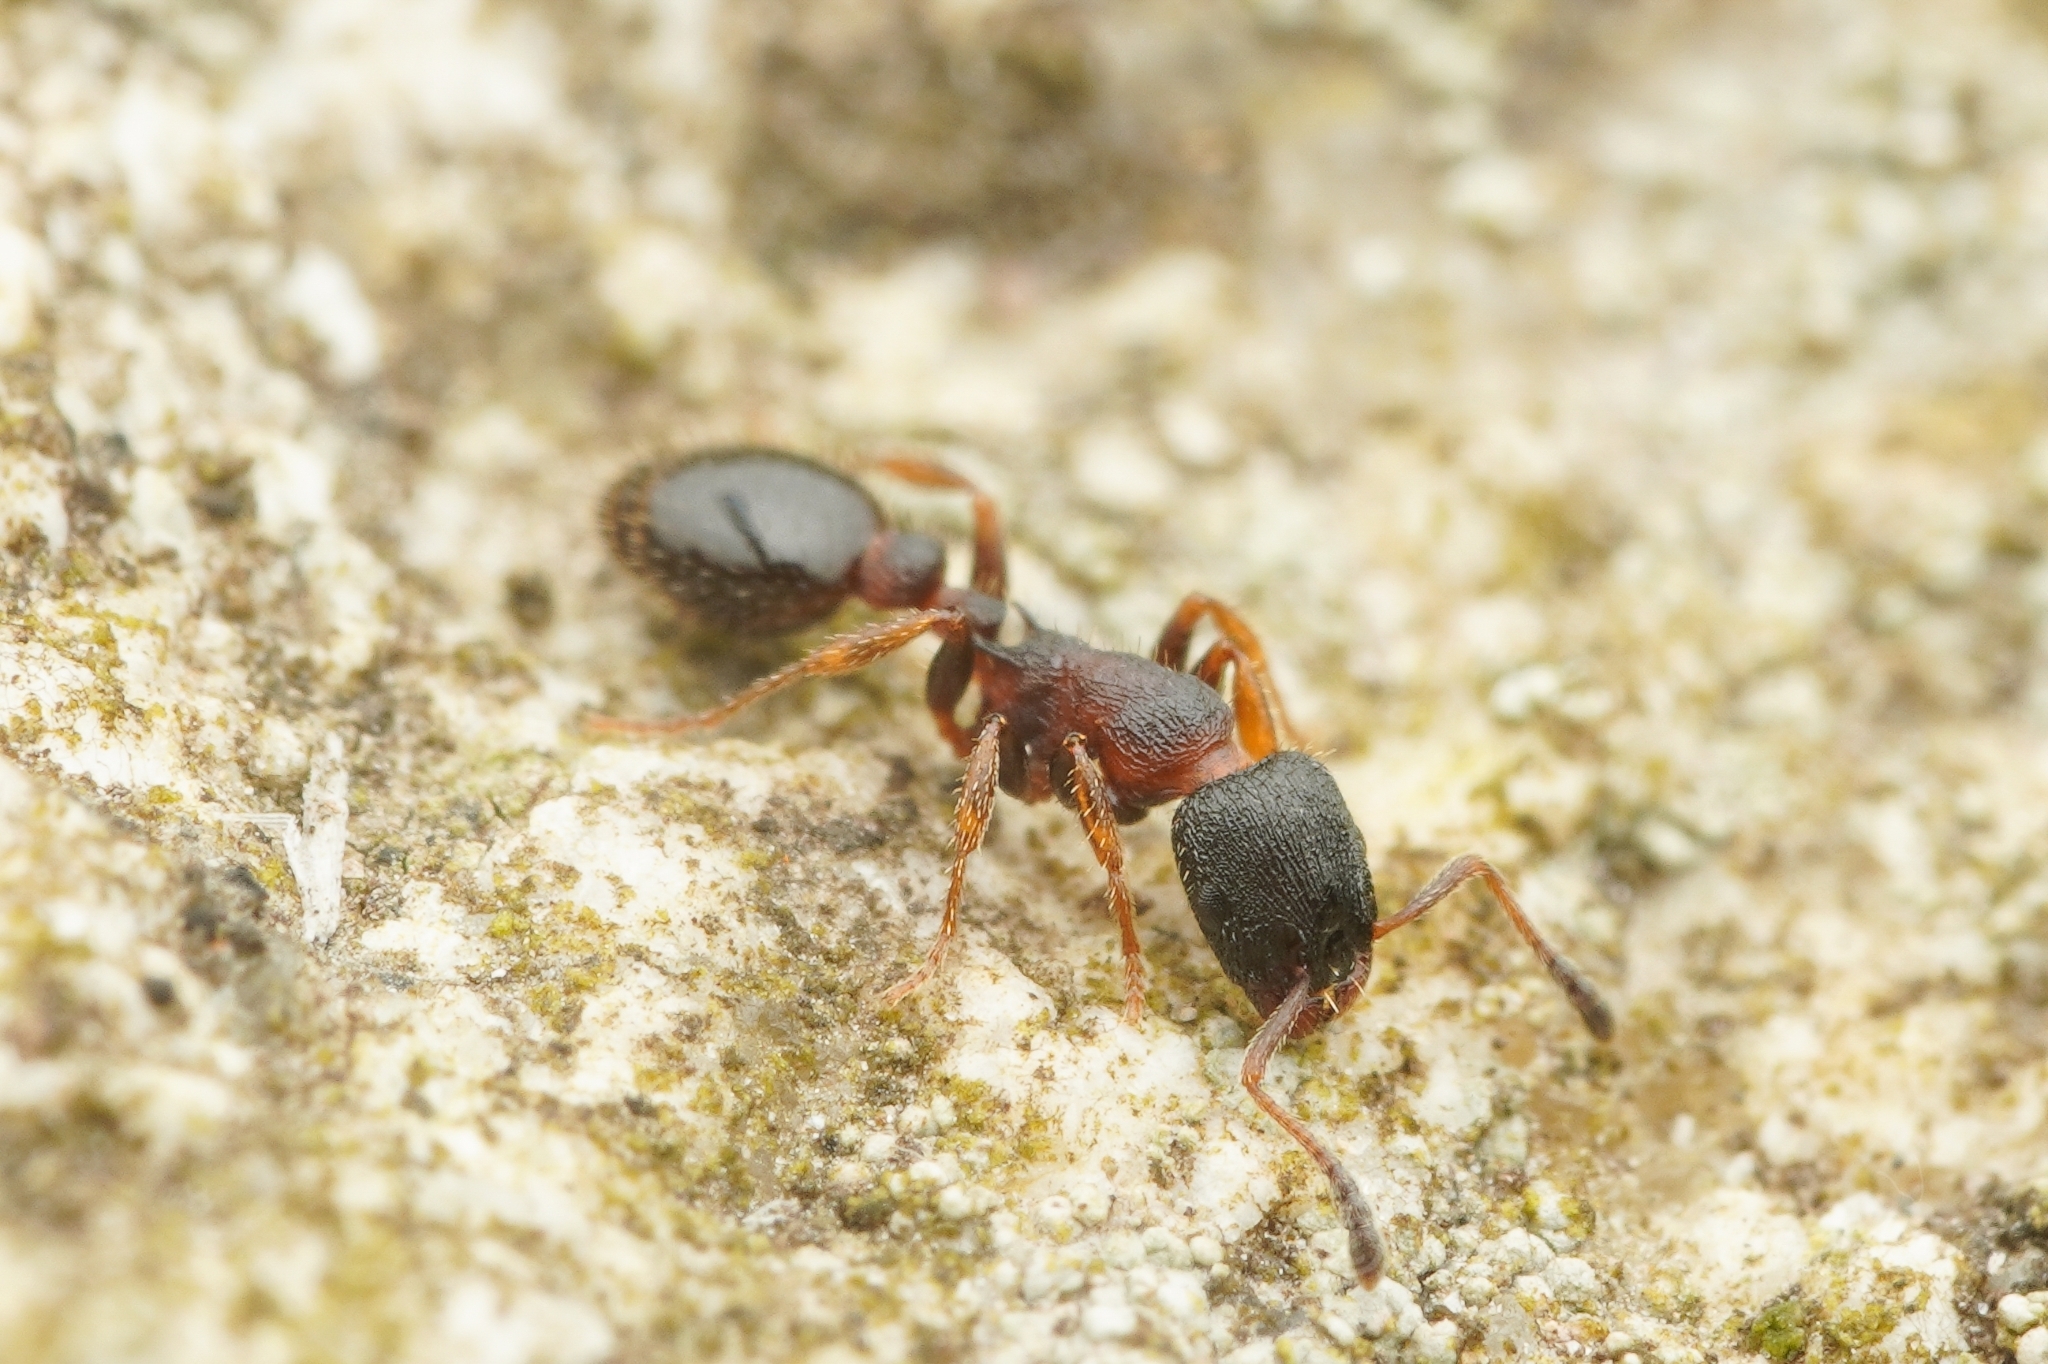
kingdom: Animalia
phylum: Arthropoda
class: Insecta
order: Hymenoptera
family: Formicidae
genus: Leptothorax
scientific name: Leptothorax acervorum
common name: Slender ant
